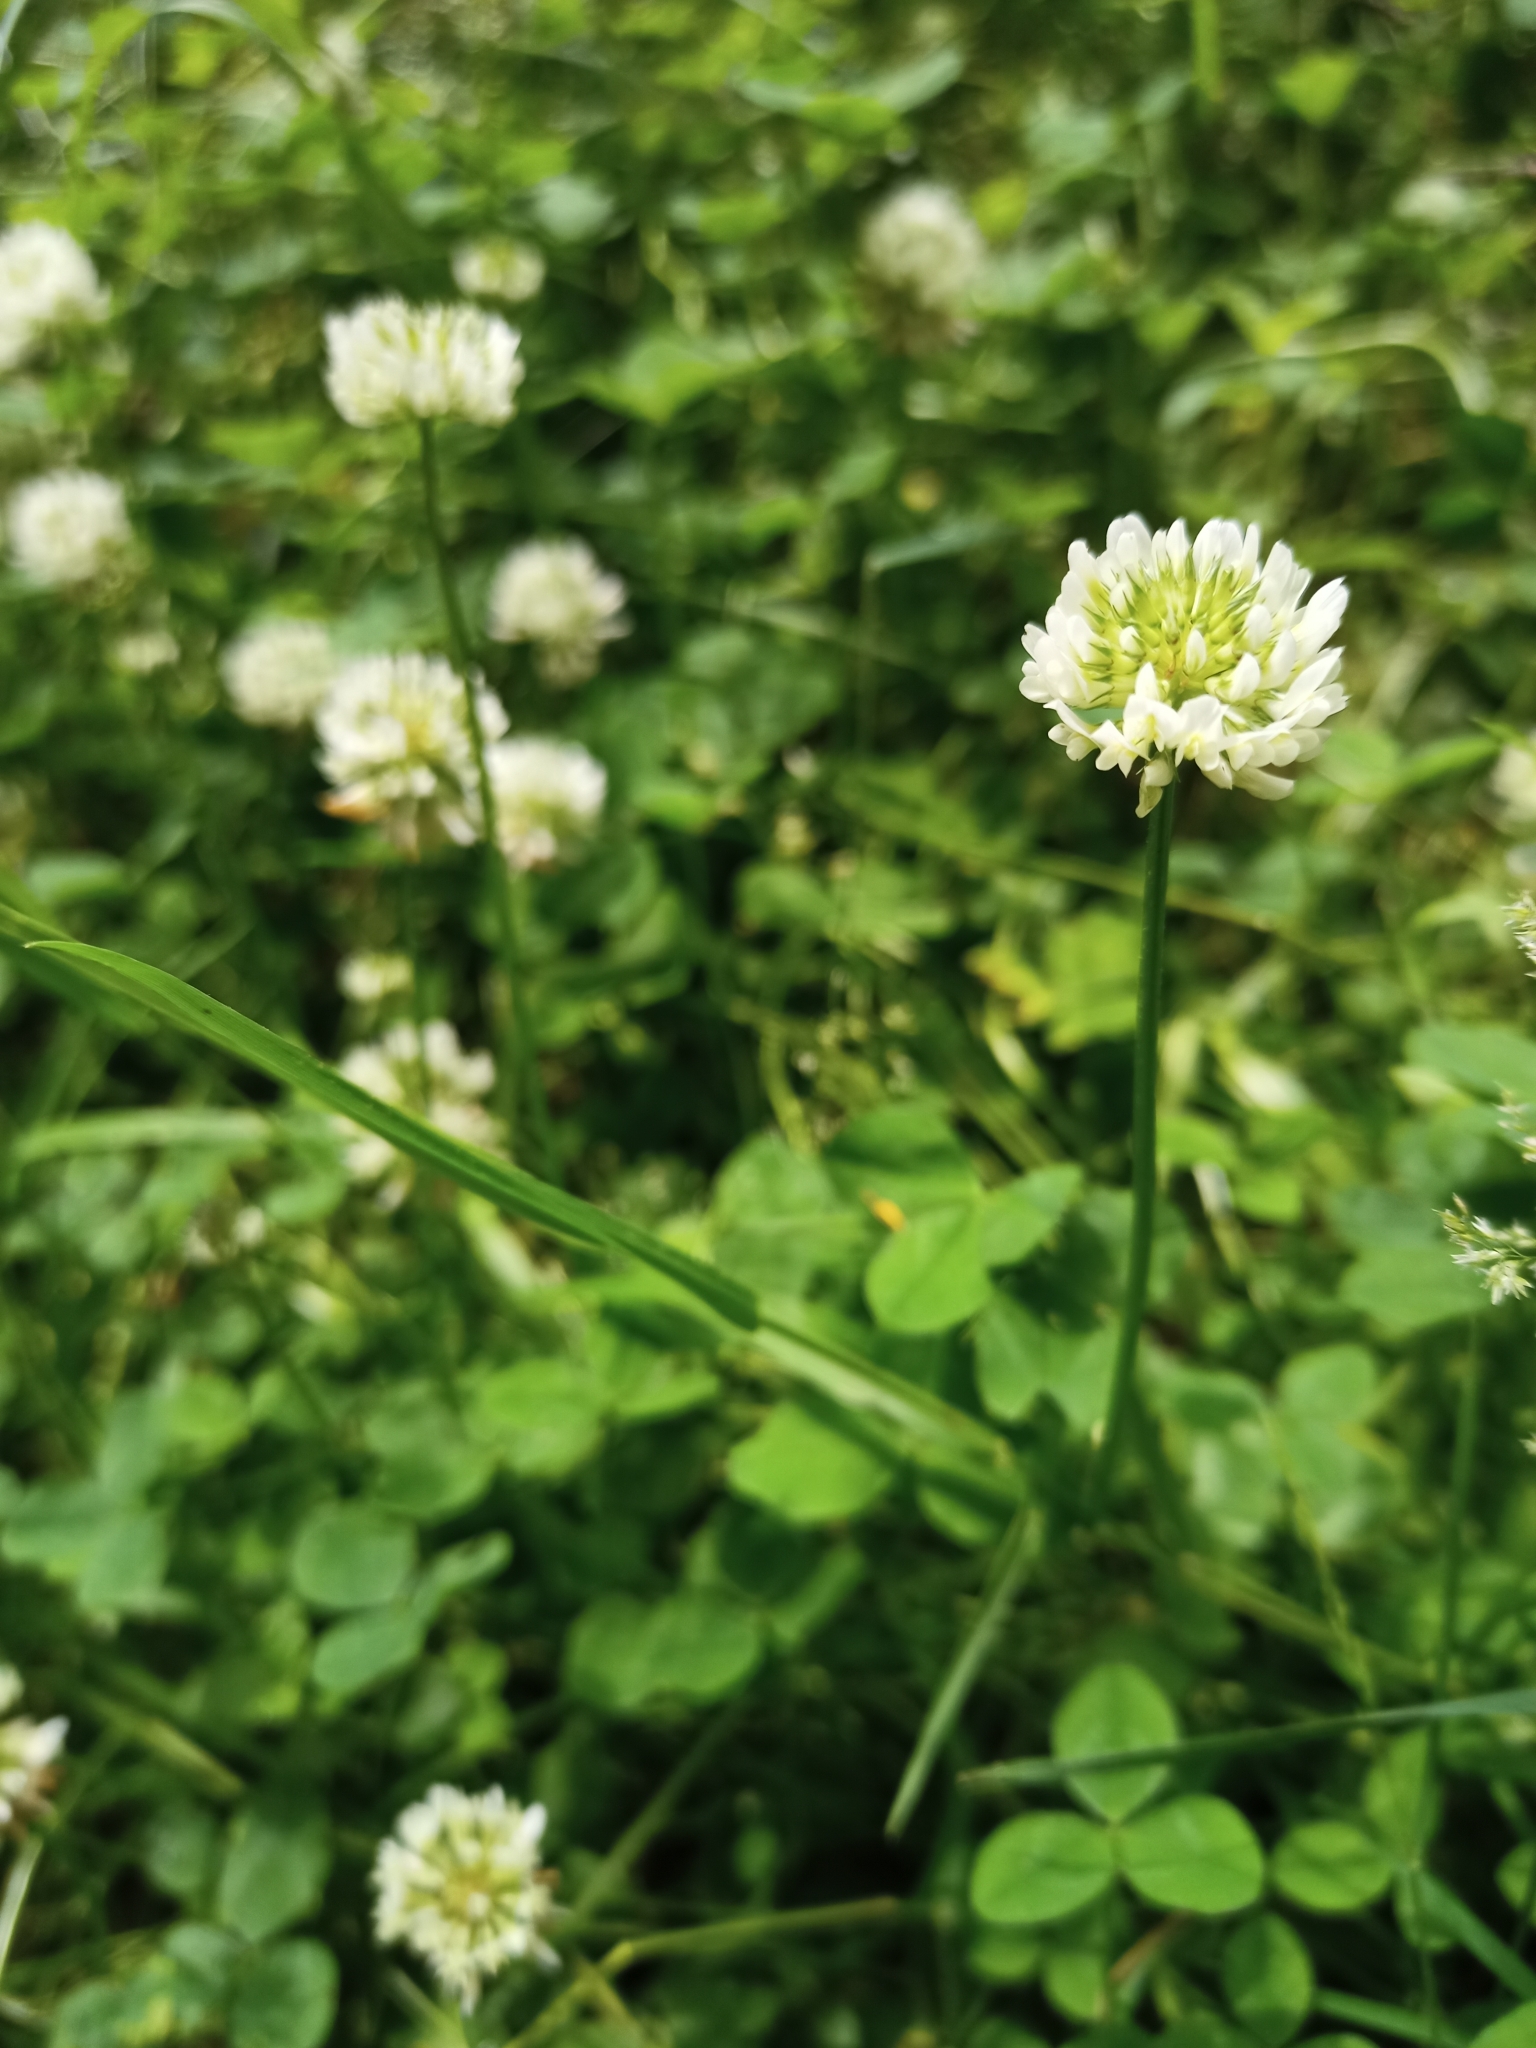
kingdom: Plantae
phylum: Tracheophyta
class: Magnoliopsida
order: Fabales
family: Fabaceae
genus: Trifolium
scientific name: Trifolium repens
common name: White clover
